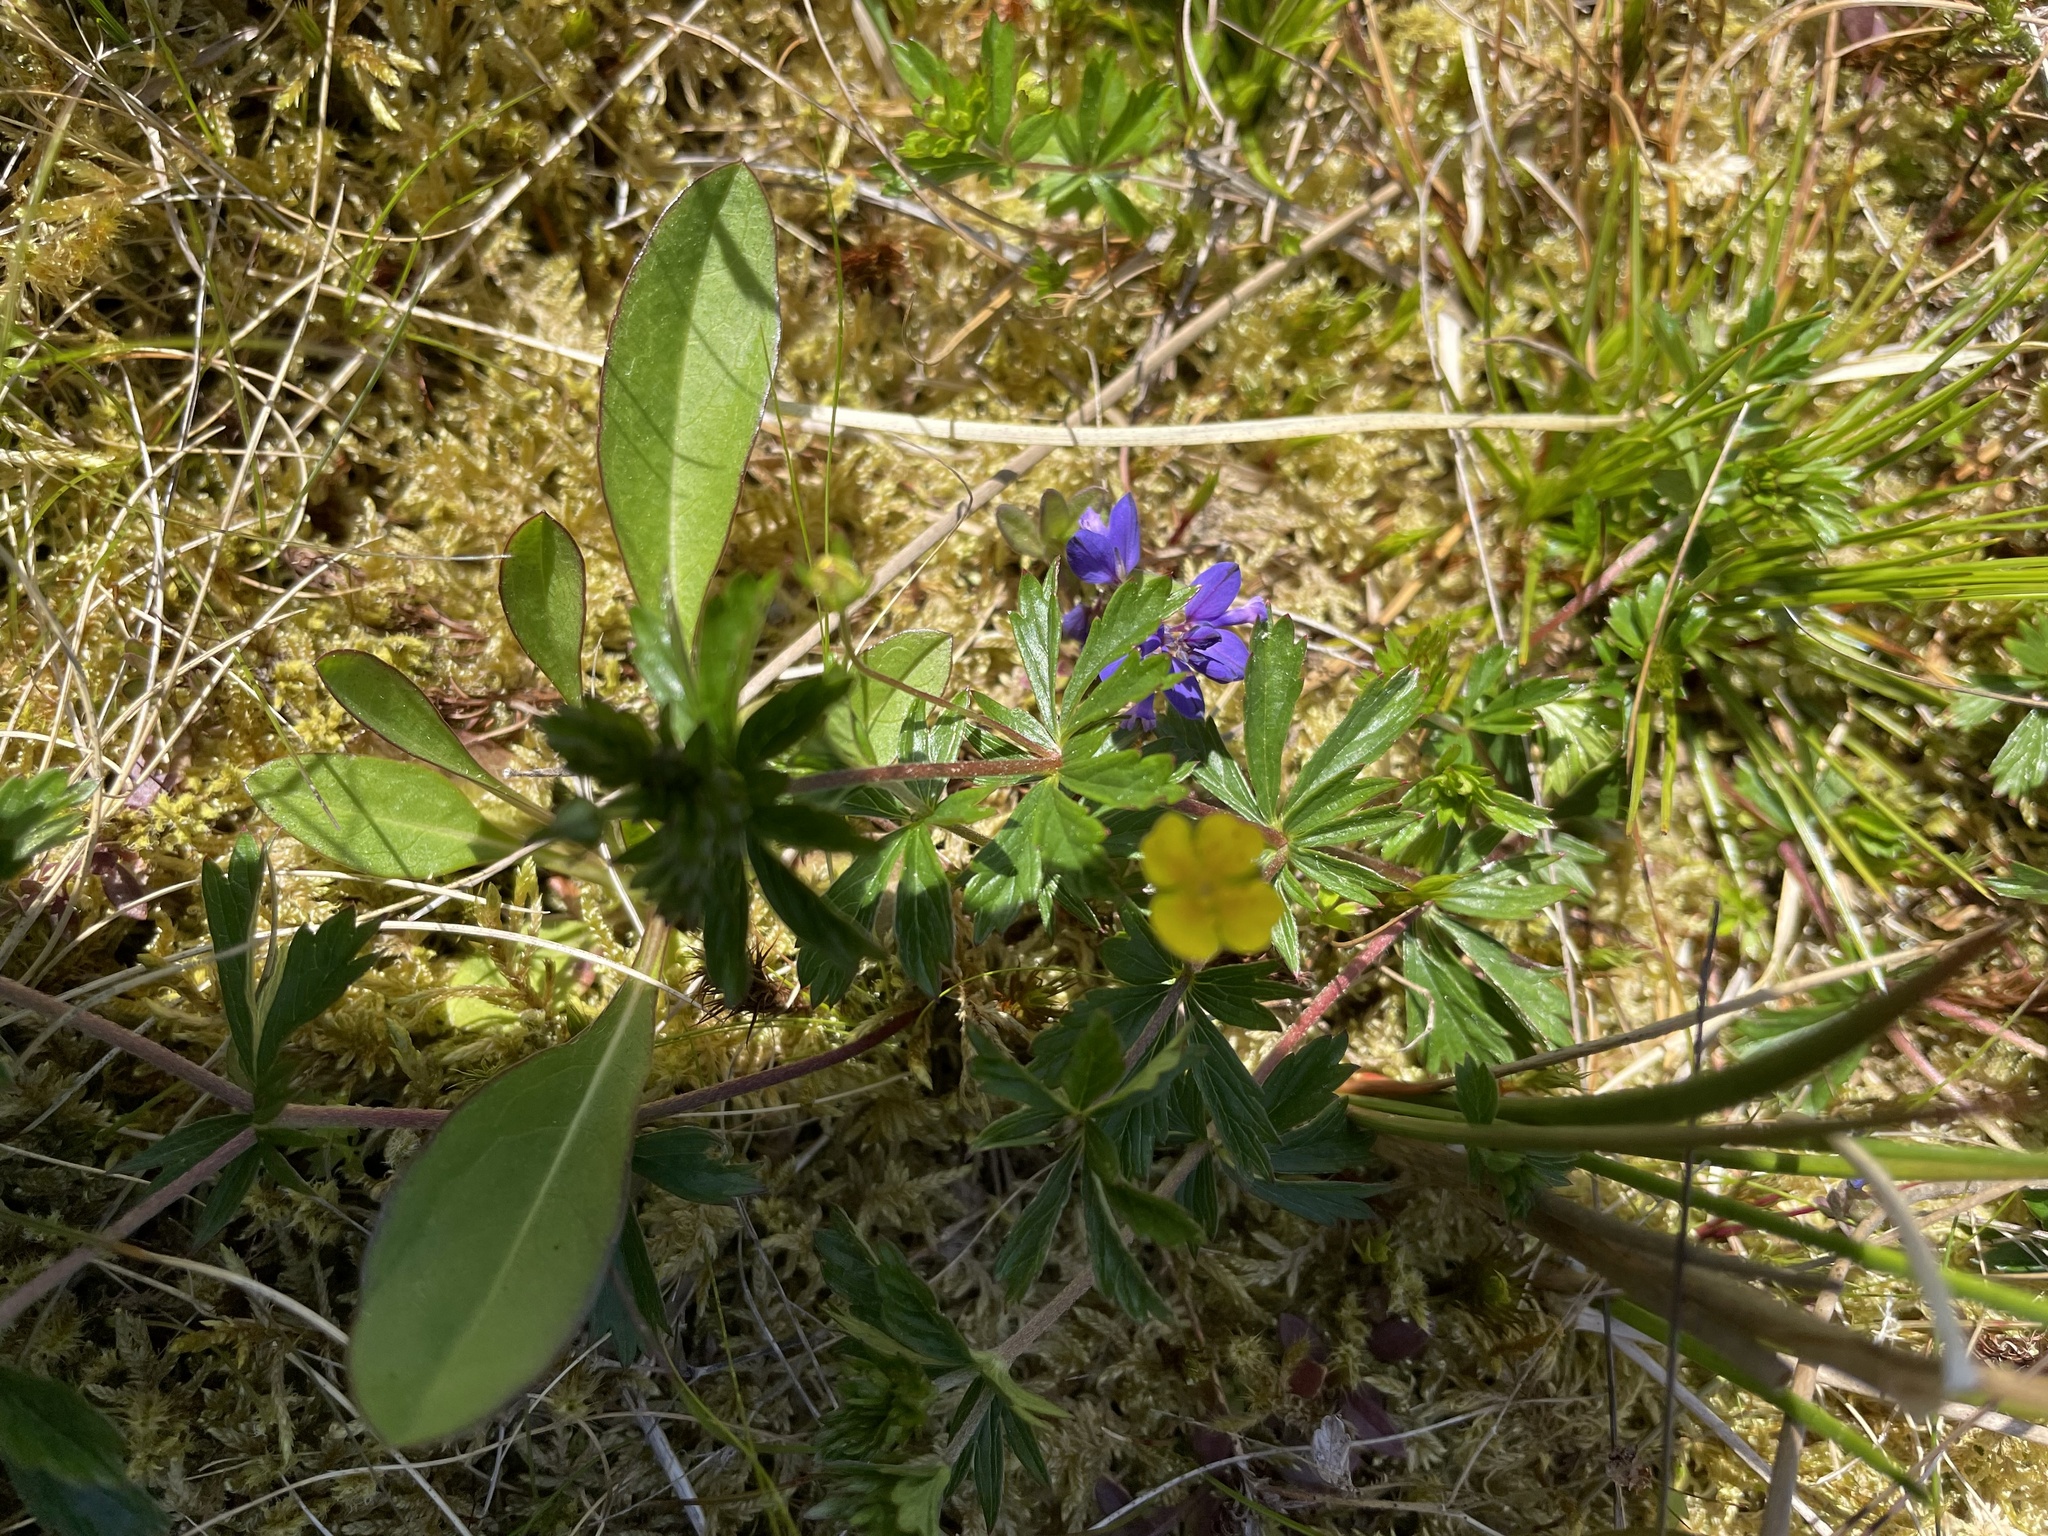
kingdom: Plantae
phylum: Tracheophyta
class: Magnoliopsida
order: Rosales
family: Rosaceae
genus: Potentilla
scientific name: Potentilla erecta
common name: Tormentil
